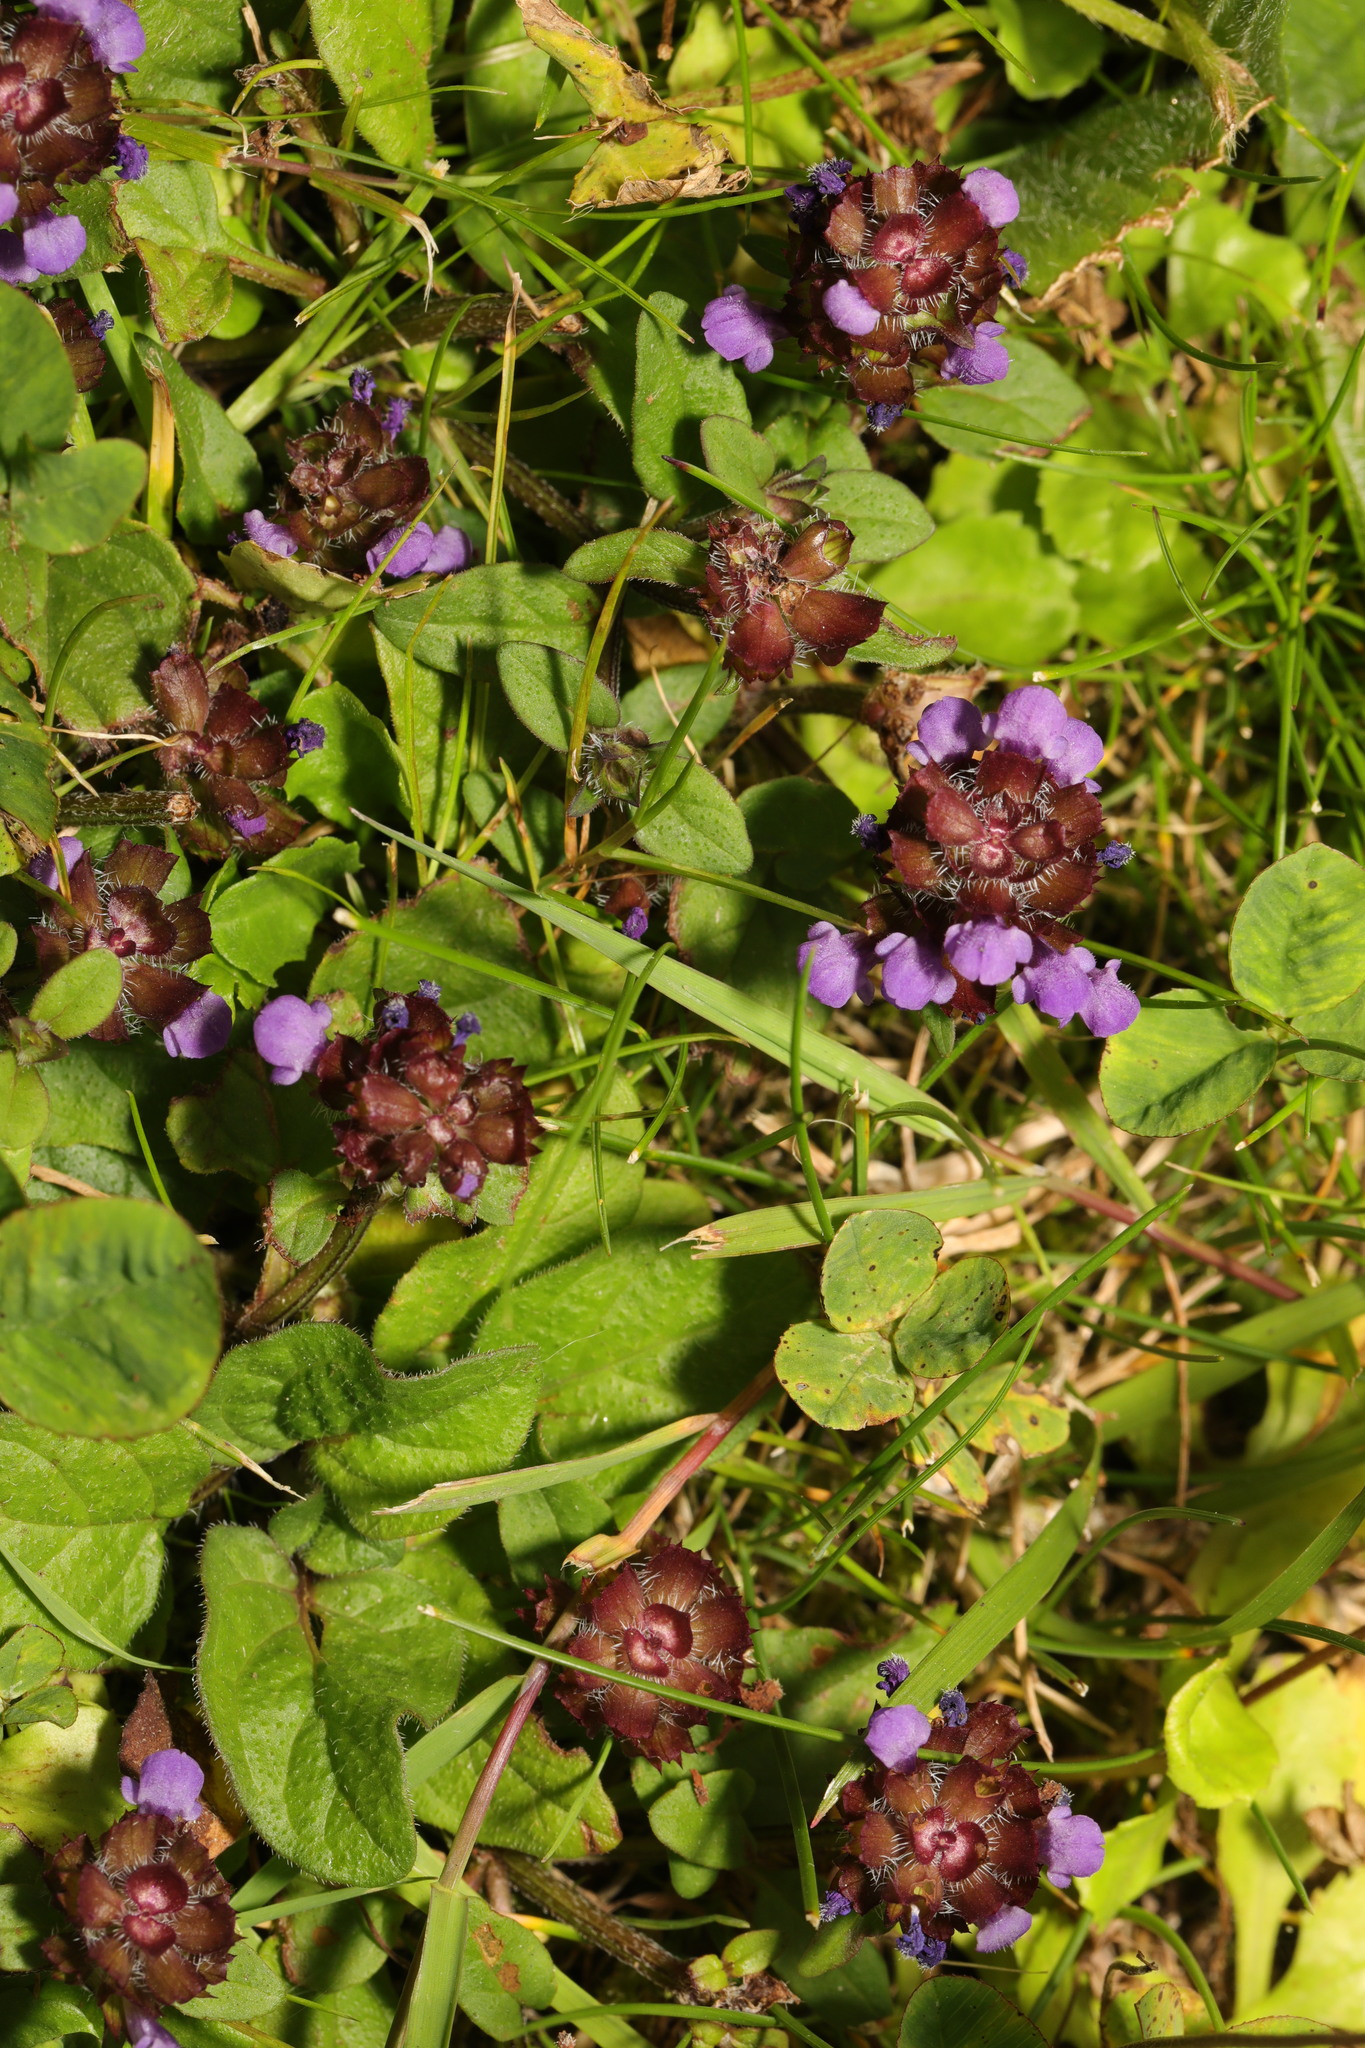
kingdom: Plantae
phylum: Tracheophyta
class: Magnoliopsida
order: Lamiales
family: Lamiaceae
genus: Prunella
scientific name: Prunella vulgaris
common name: Heal-all
